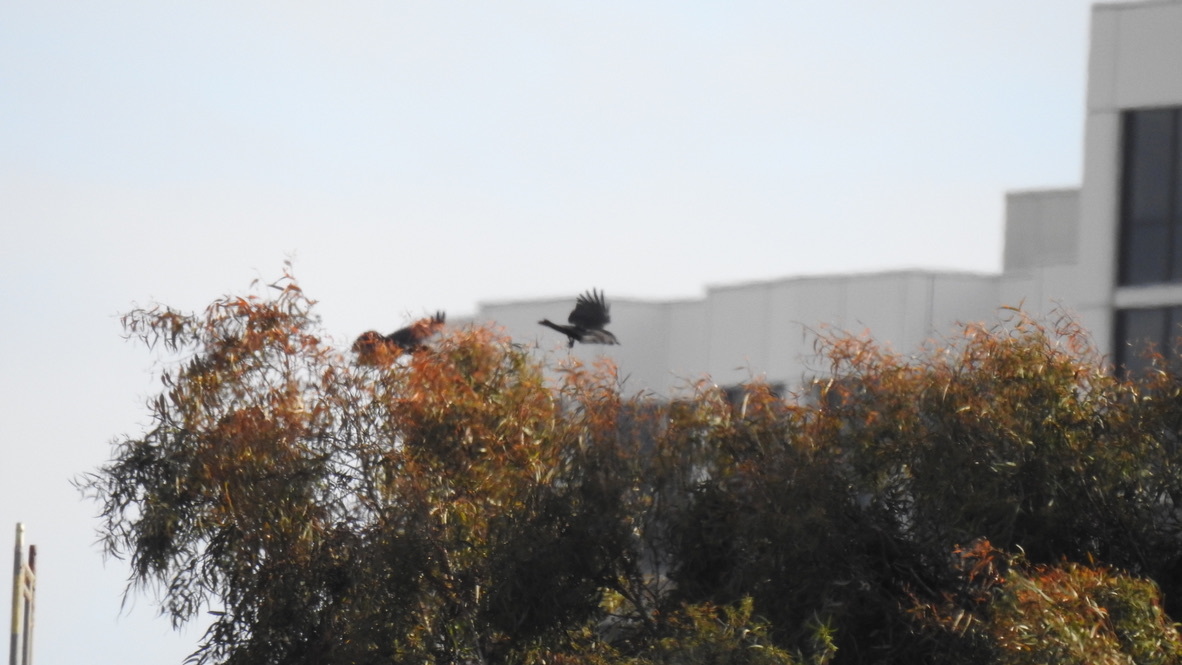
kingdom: Animalia
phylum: Chordata
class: Aves
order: Passeriformes
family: Corvidae
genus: Corvus
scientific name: Corvus
